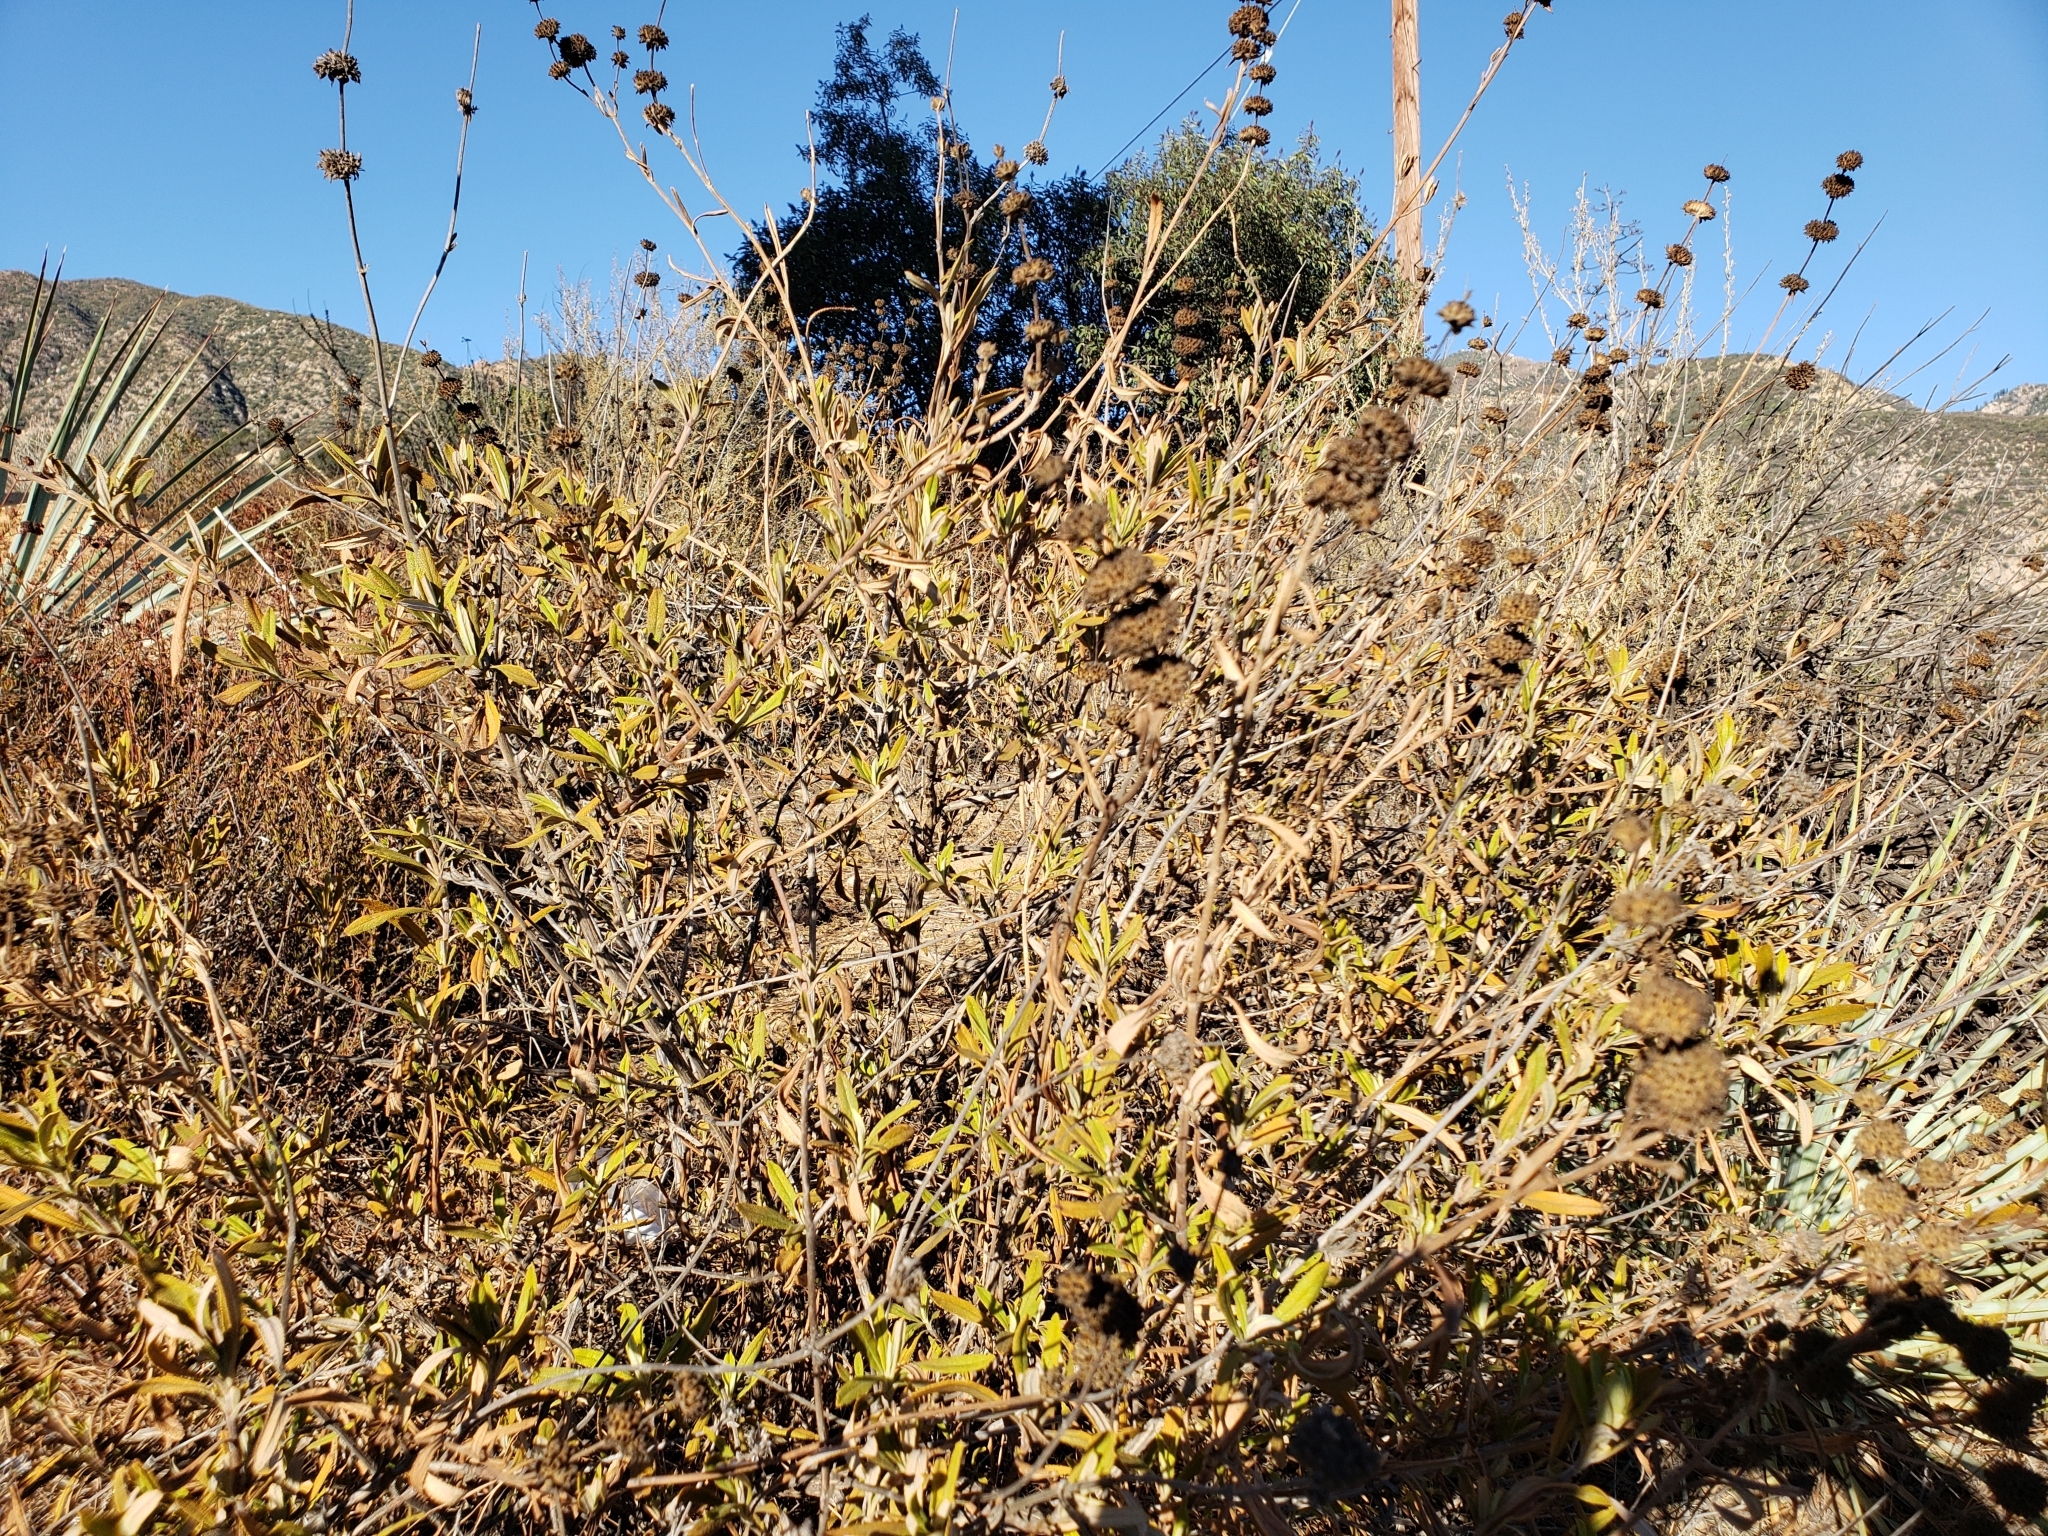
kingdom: Plantae
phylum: Tracheophyta
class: Magnoliopsida
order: Lamiales
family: Lamiaceae
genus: Salvia
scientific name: Salvia mellifera
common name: Black sage
